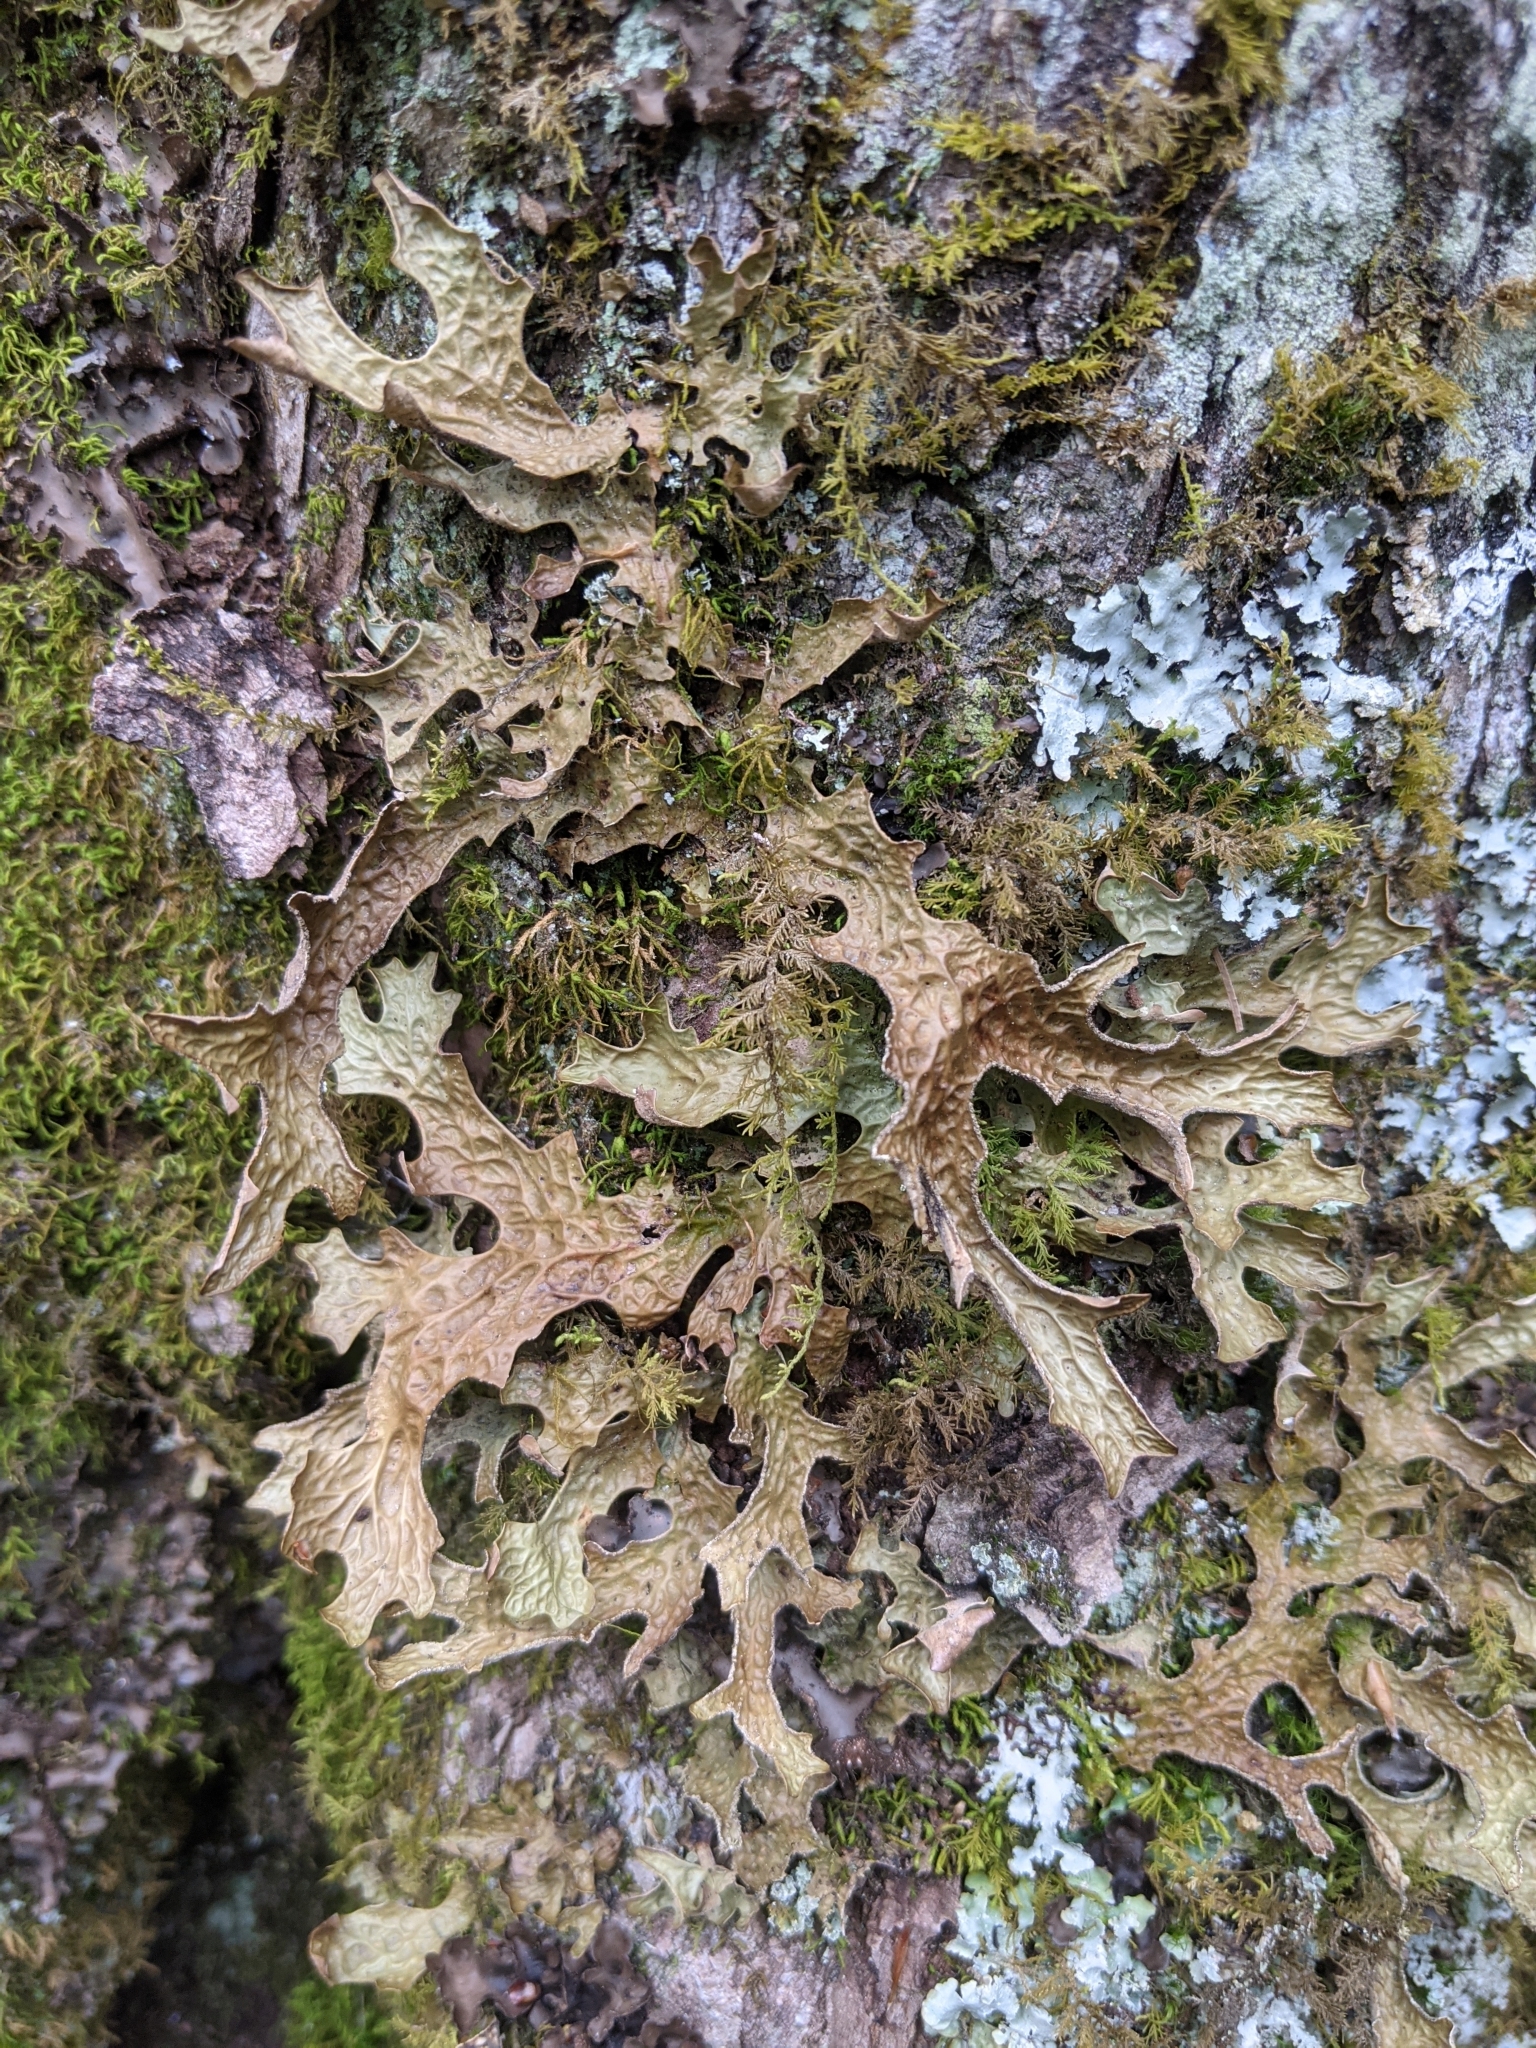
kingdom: Fungi
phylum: Ascomycota
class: Lecanoromycetes
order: Peltigerales
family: Lobariaceae
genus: Lobaria
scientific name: Lobaria pulmonaria
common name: Lungwort
